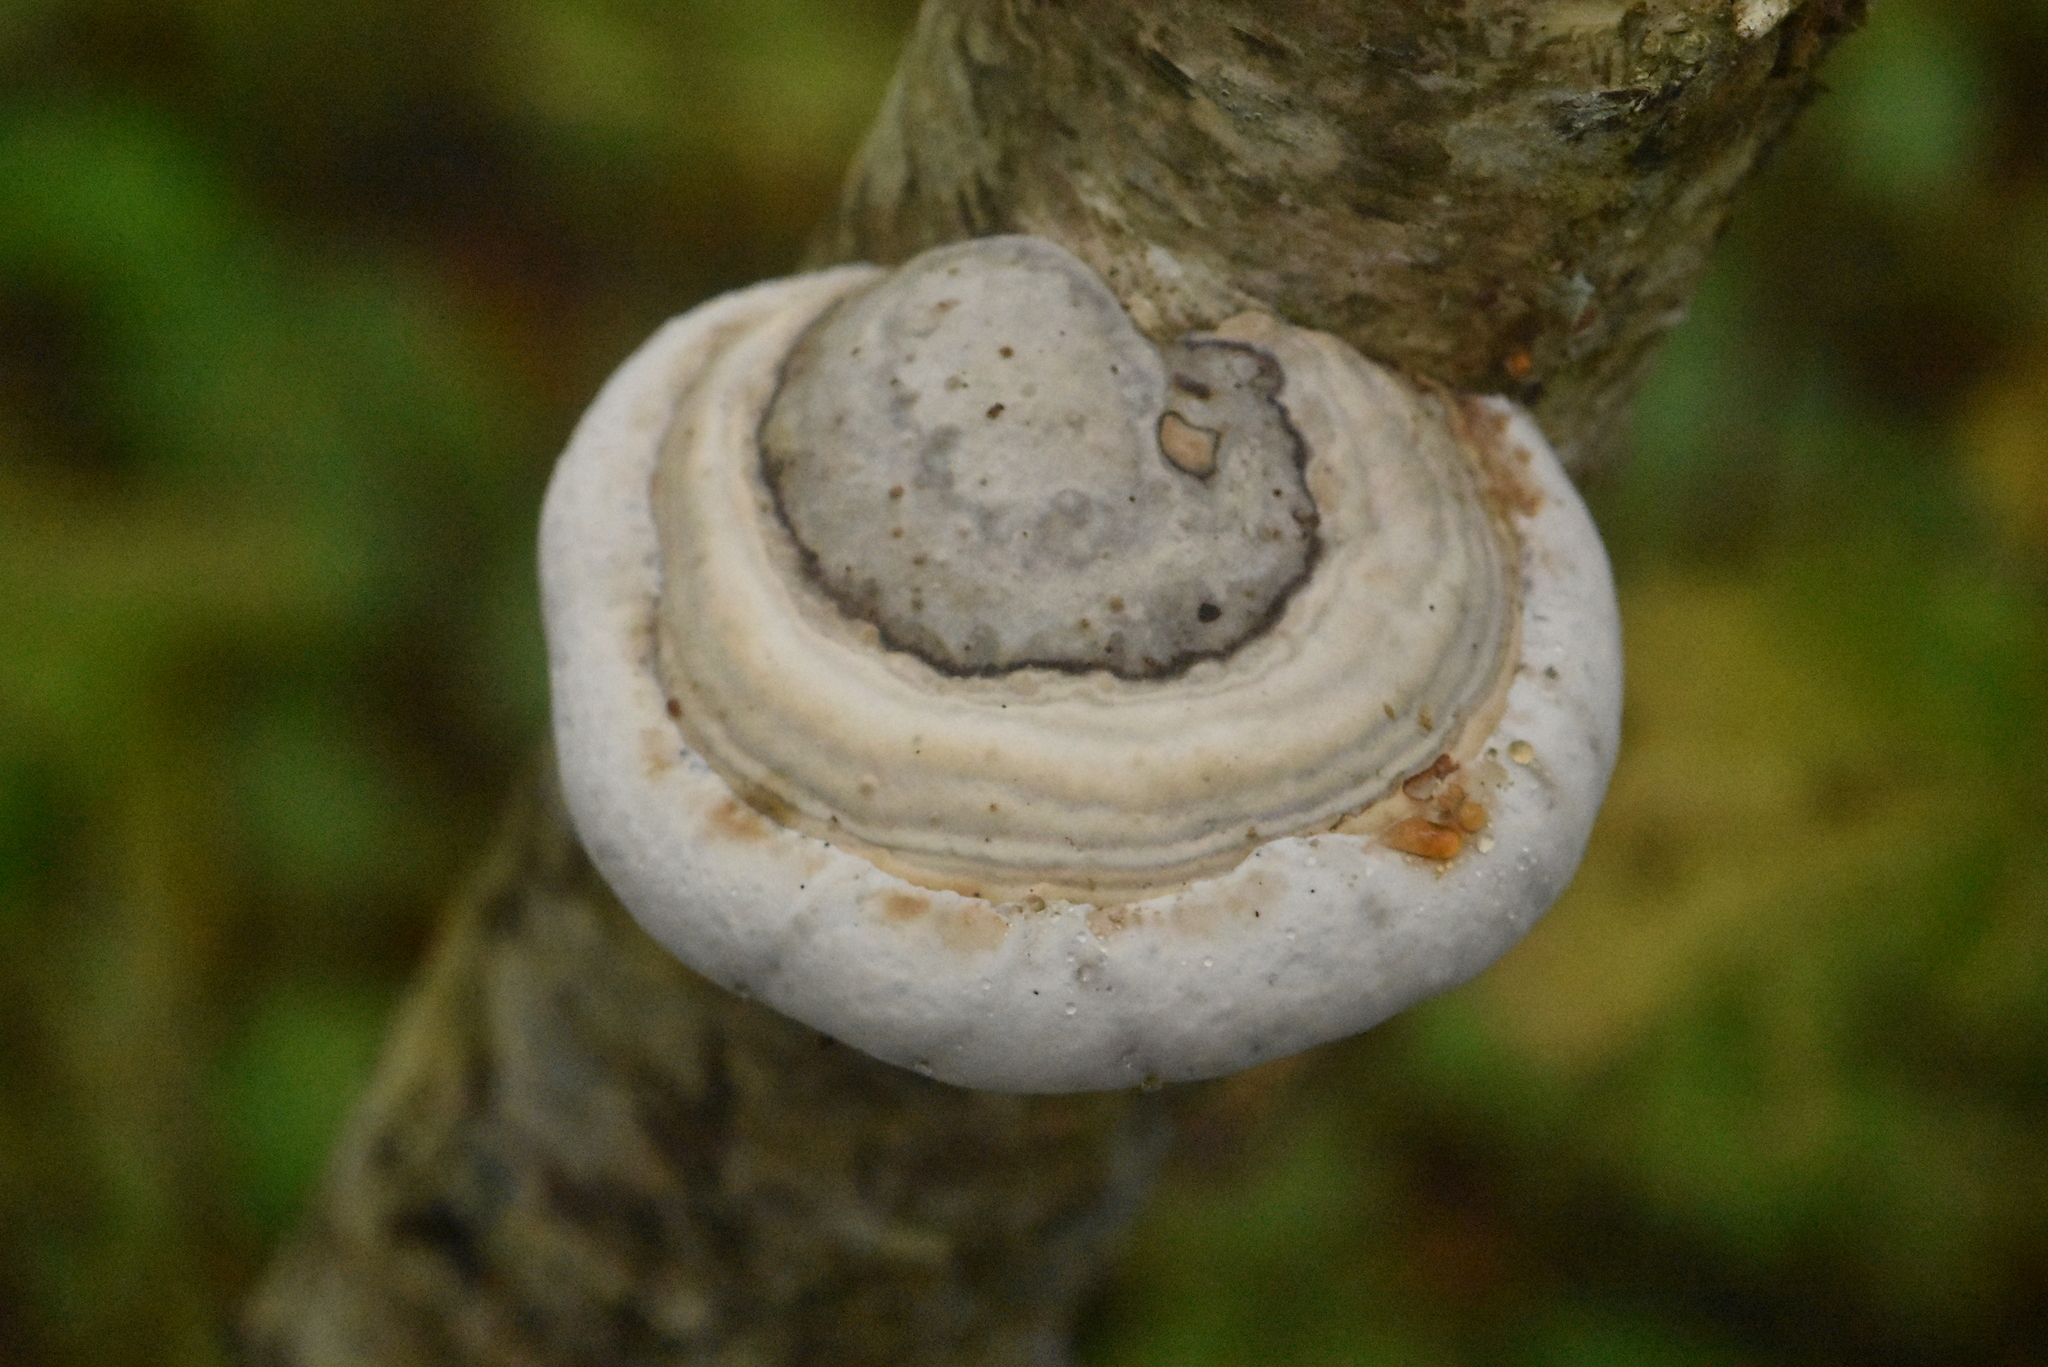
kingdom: Fungi
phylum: Basidiomycota
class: Agaricomycetes
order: Polyporales
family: Polyporaceae
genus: Fomes
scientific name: Fomes fomentarius
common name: Hoof fungus
